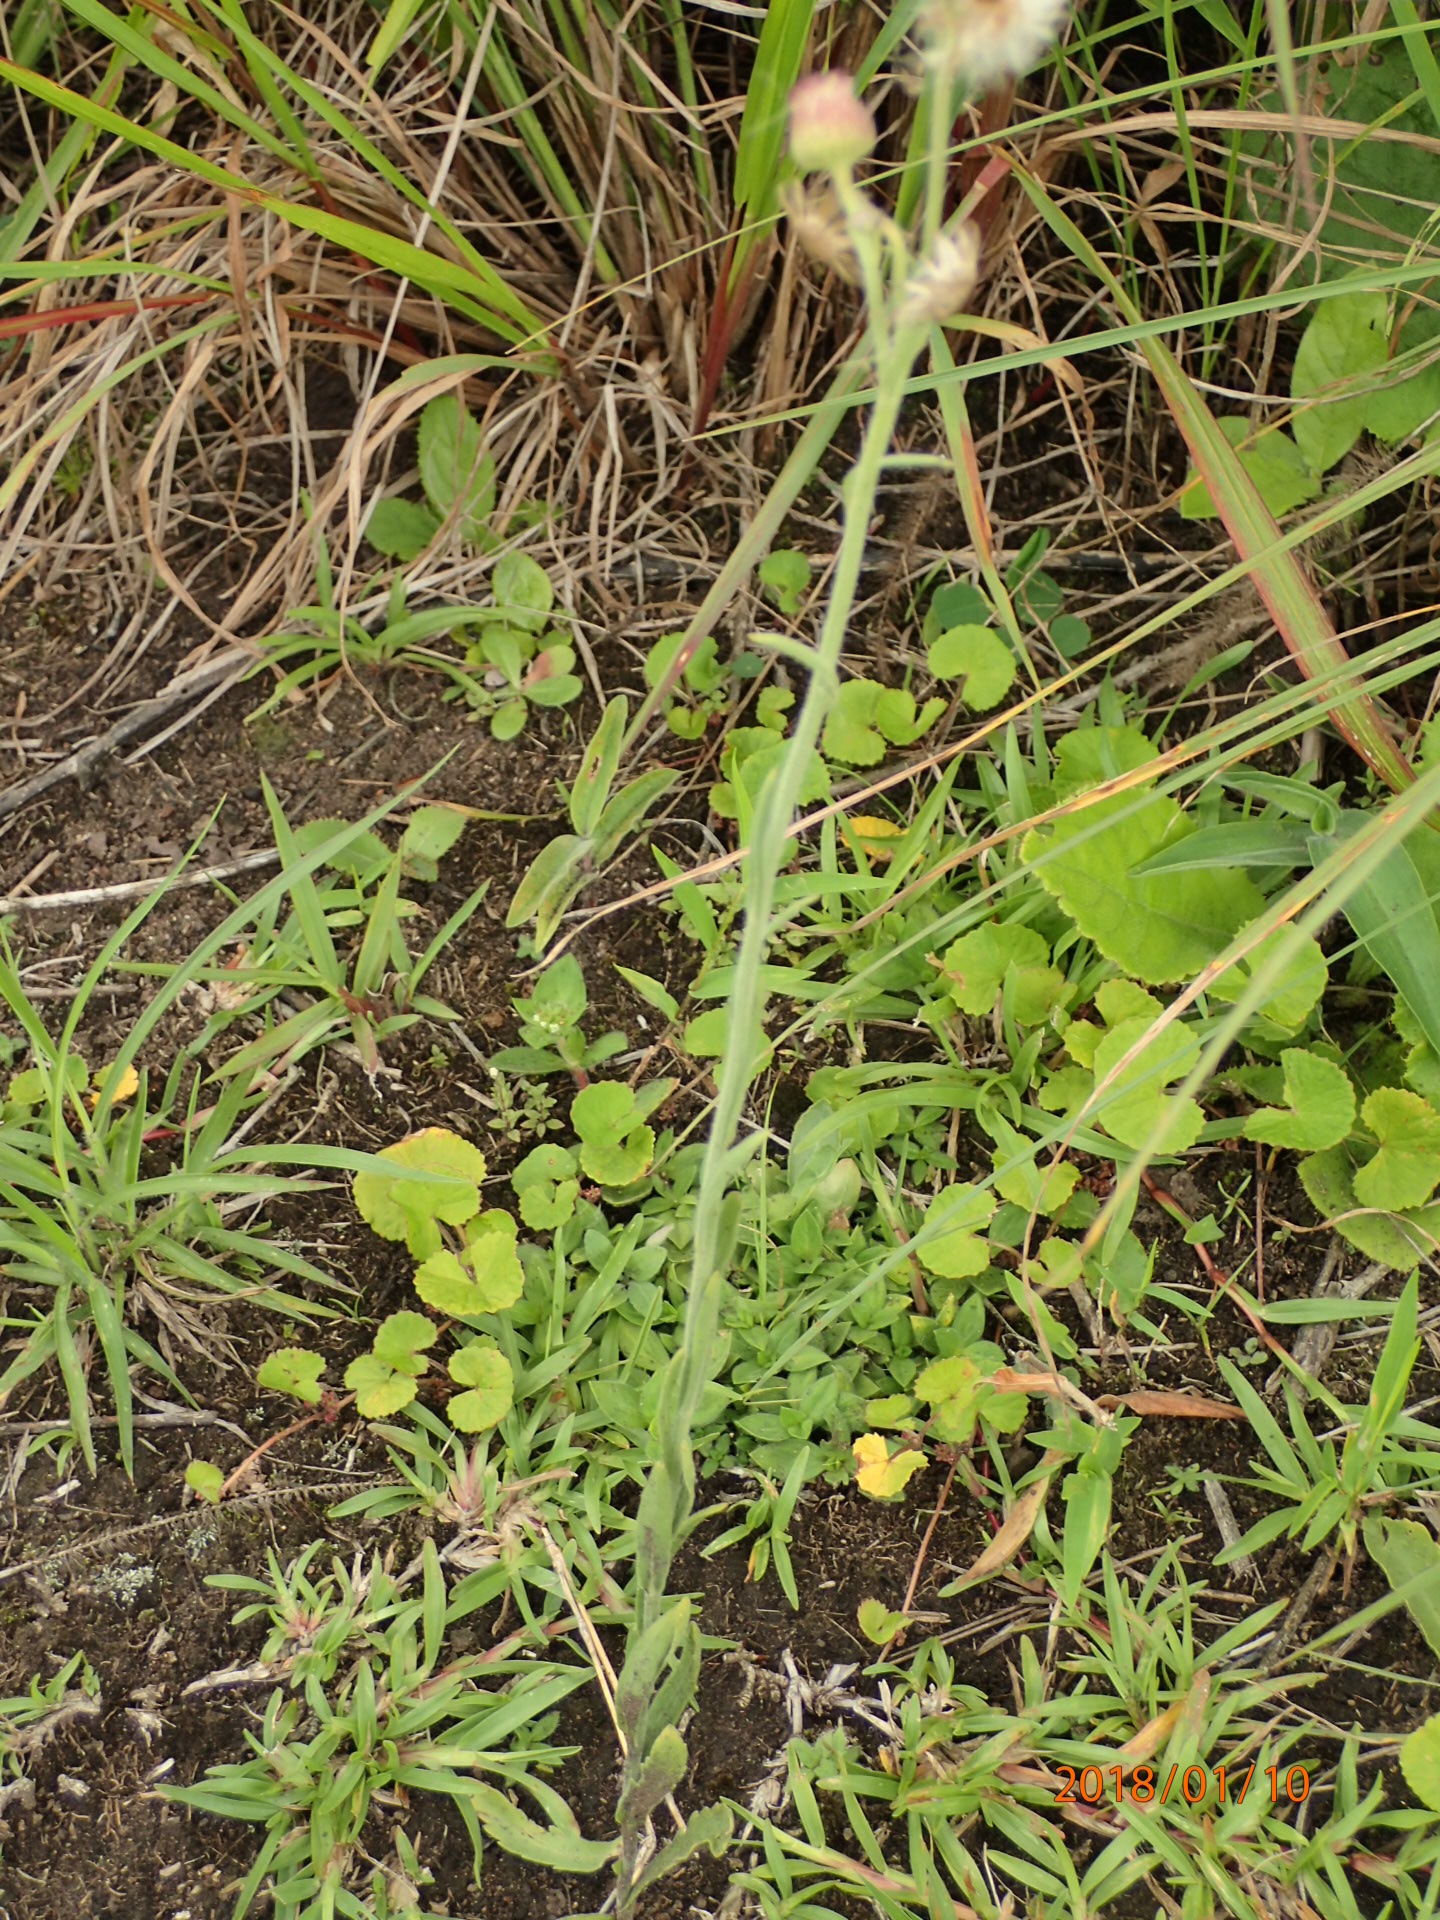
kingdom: Plantae
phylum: Tracheophyta
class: Magnoliopsida
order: Asterales
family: Asteraceae
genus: Erigeron
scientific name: Erigeron primulifolius
